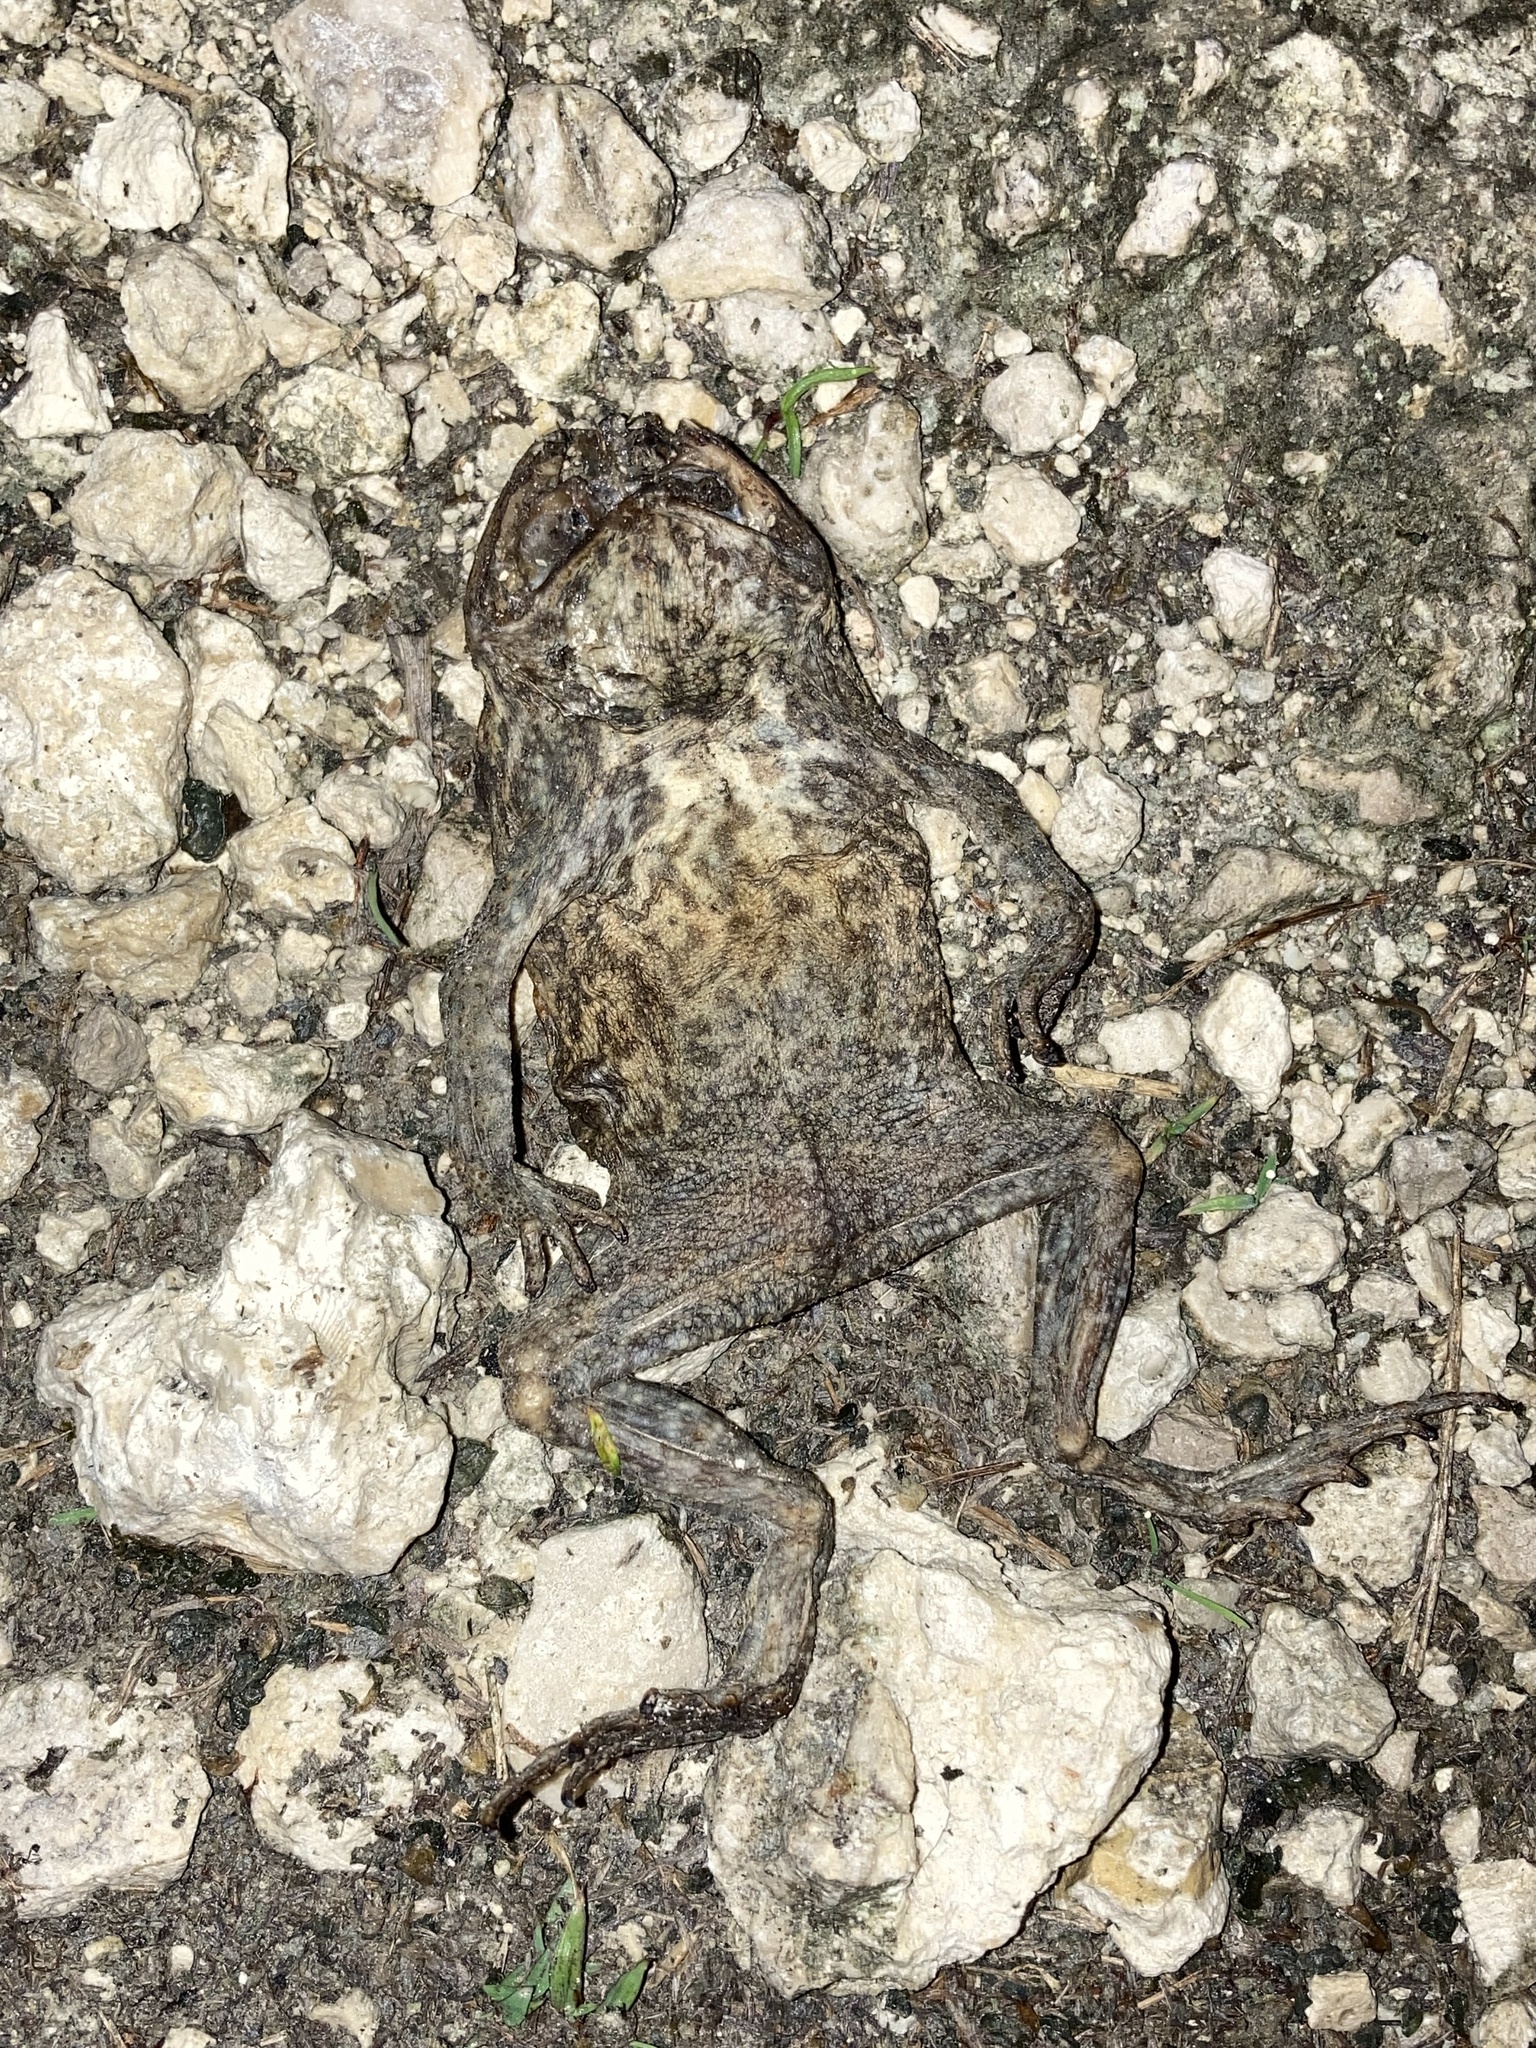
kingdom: Animalia
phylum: Chordata
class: Amphibia
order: Anura
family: Bufonidae
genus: Rhinella
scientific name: Rhinella marina
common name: Cane toad
